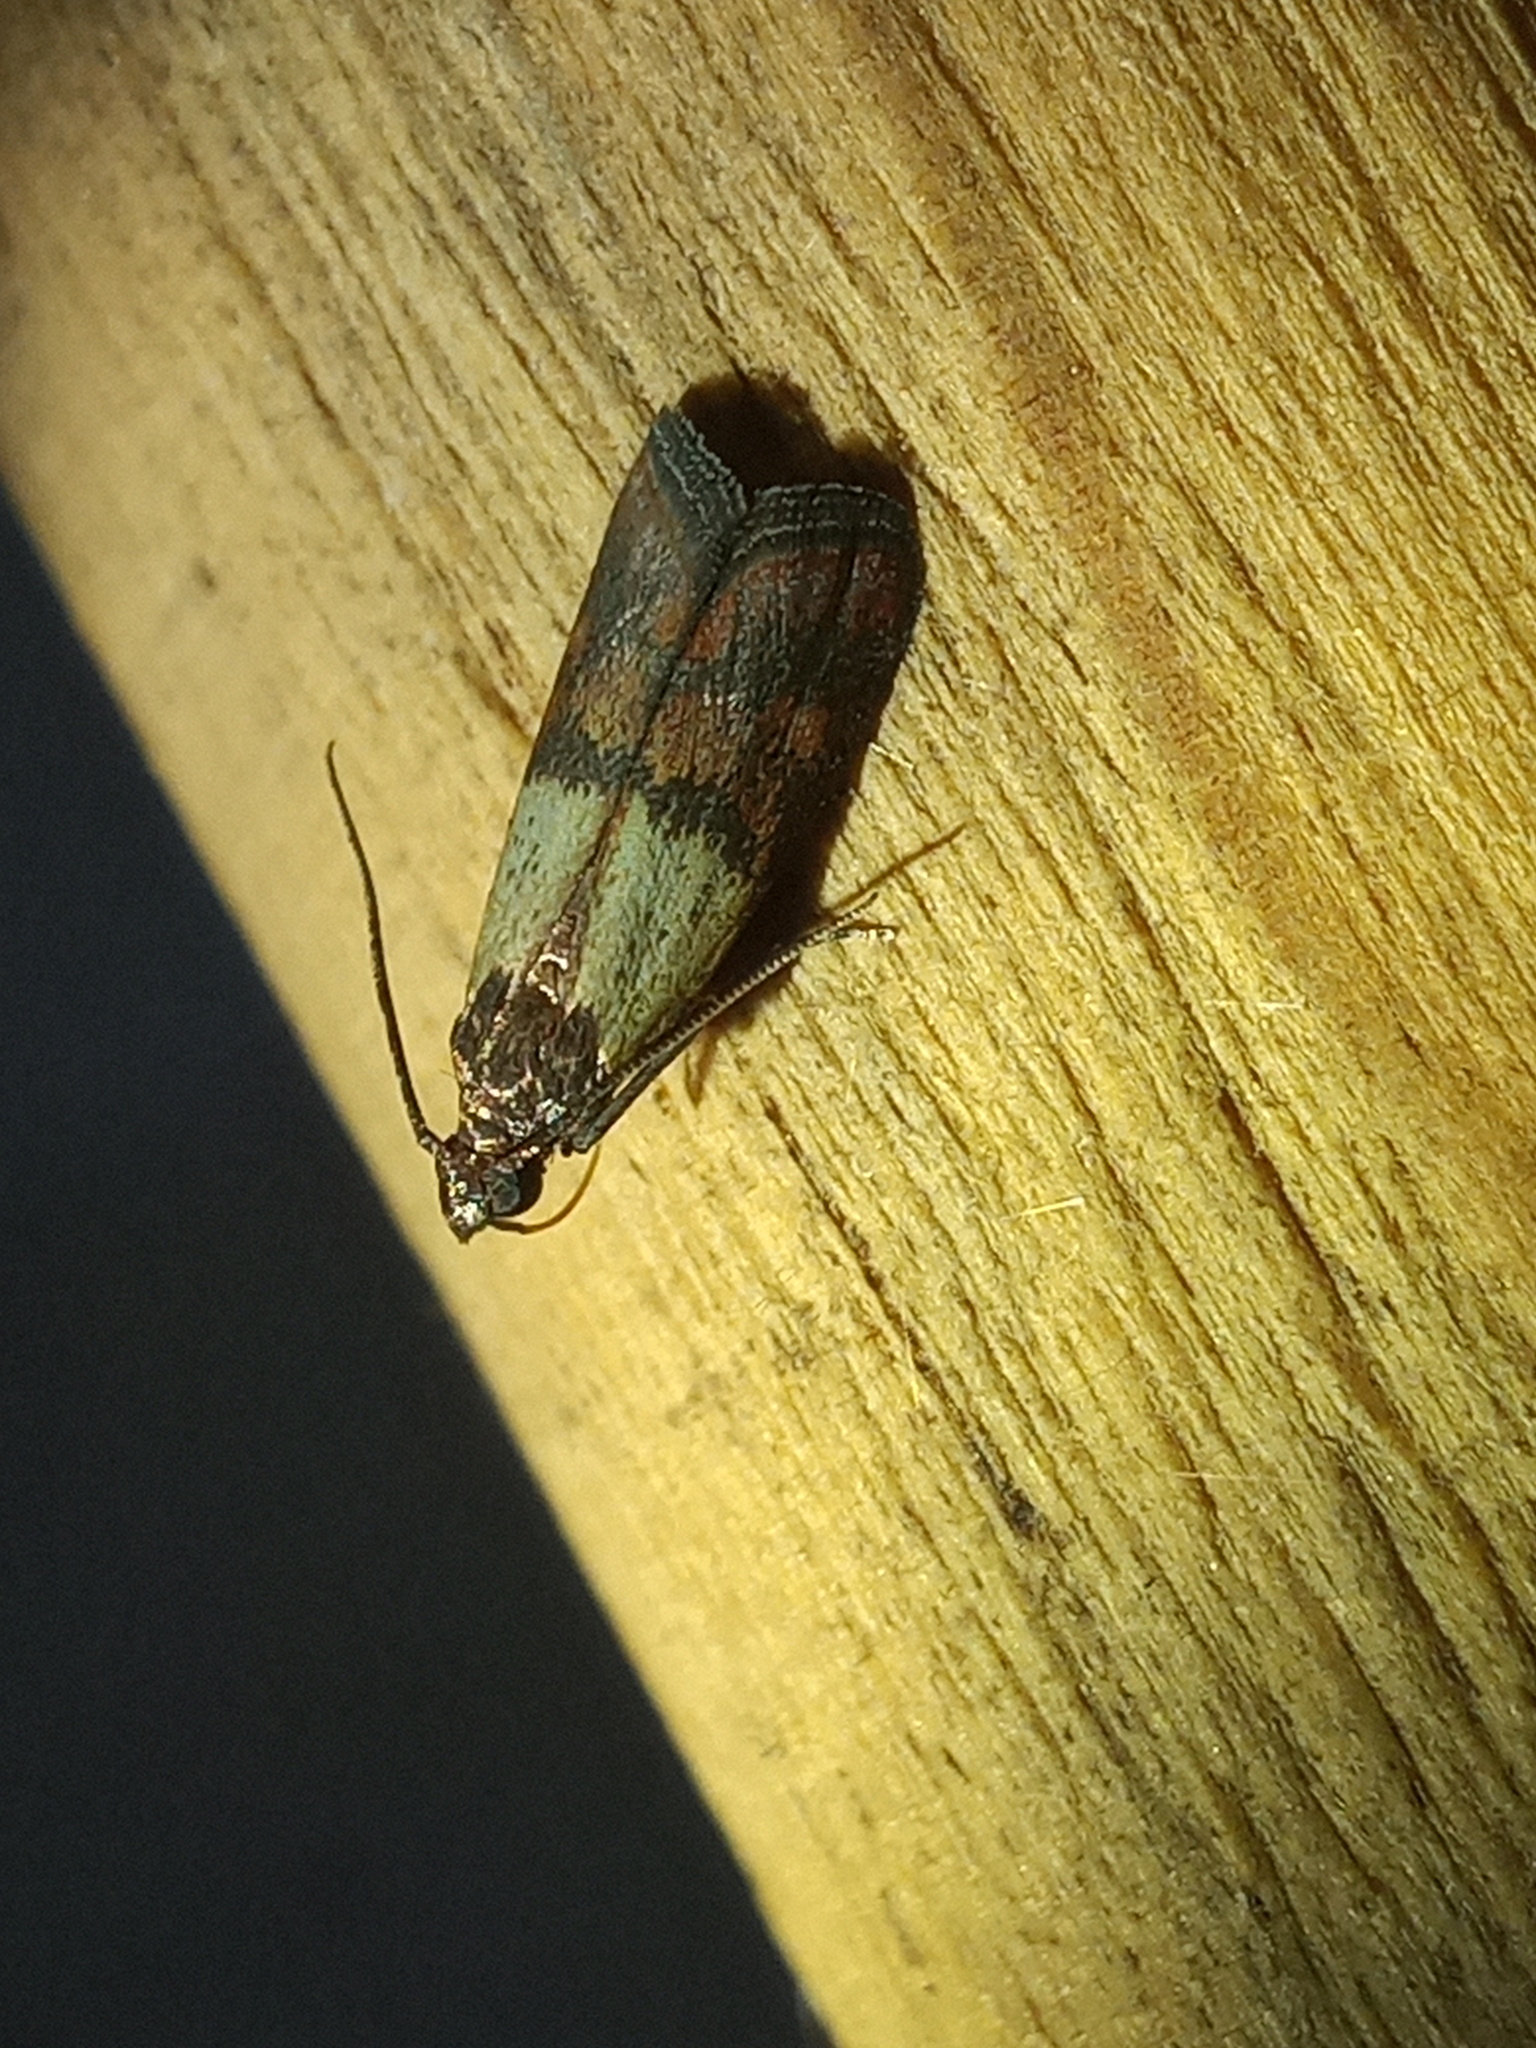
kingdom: Animalia
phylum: Arthropoda
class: Insecta
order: Lepidoptera
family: Pyralidae
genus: Plodia
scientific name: Plodia interpunctella
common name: Indian meal moth
